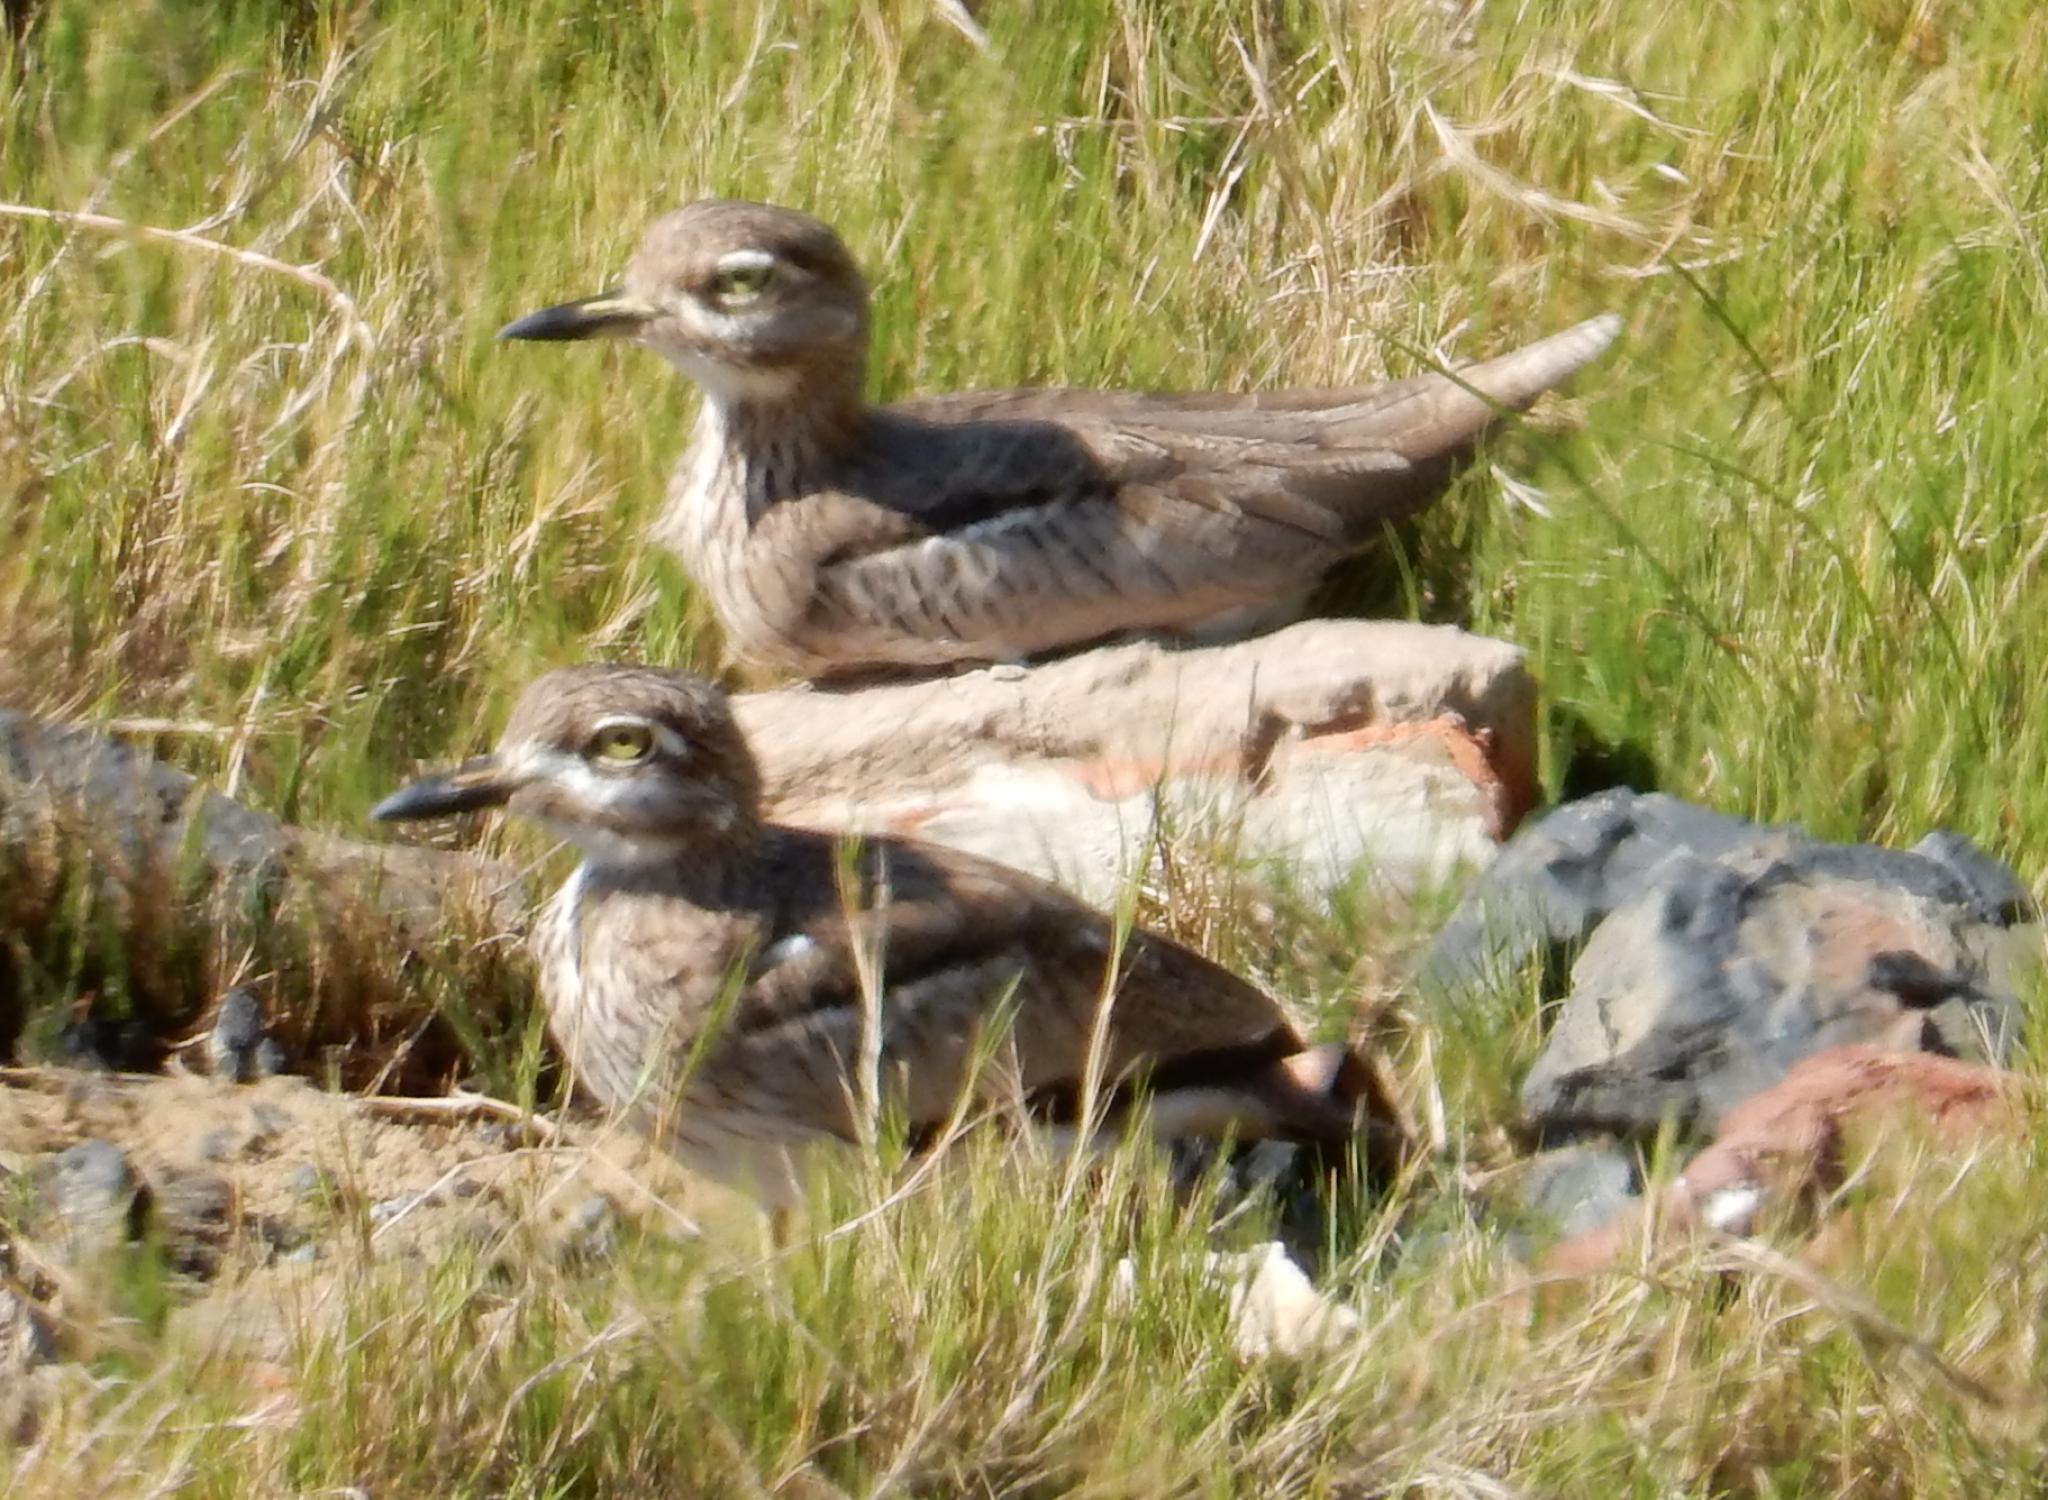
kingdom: Animalia
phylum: Chordata
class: Aves
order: Charadriiformes
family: Burhinidae
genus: Burhinus
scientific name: Burhinus vermiculatus
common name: Water thick-knee
